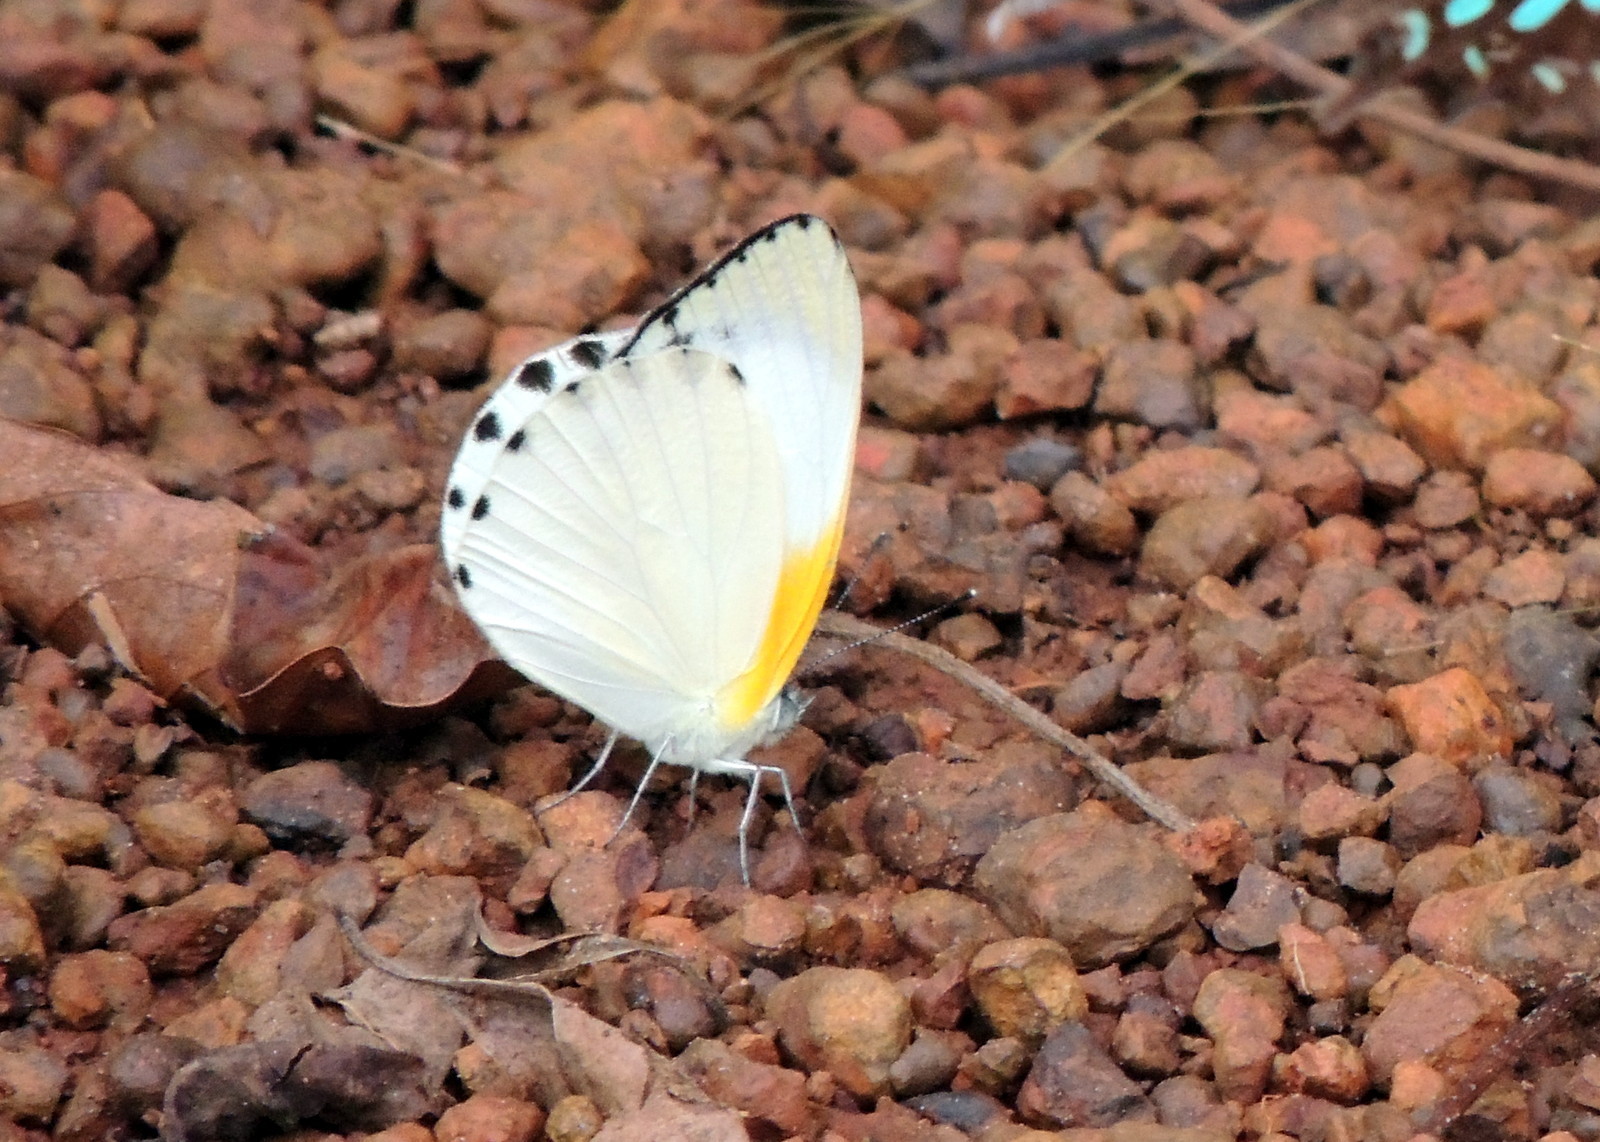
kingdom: Animalia
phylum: Arthropoda
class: Insecta
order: Lepidoptera
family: Pieridae
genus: Appias
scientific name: Appias
